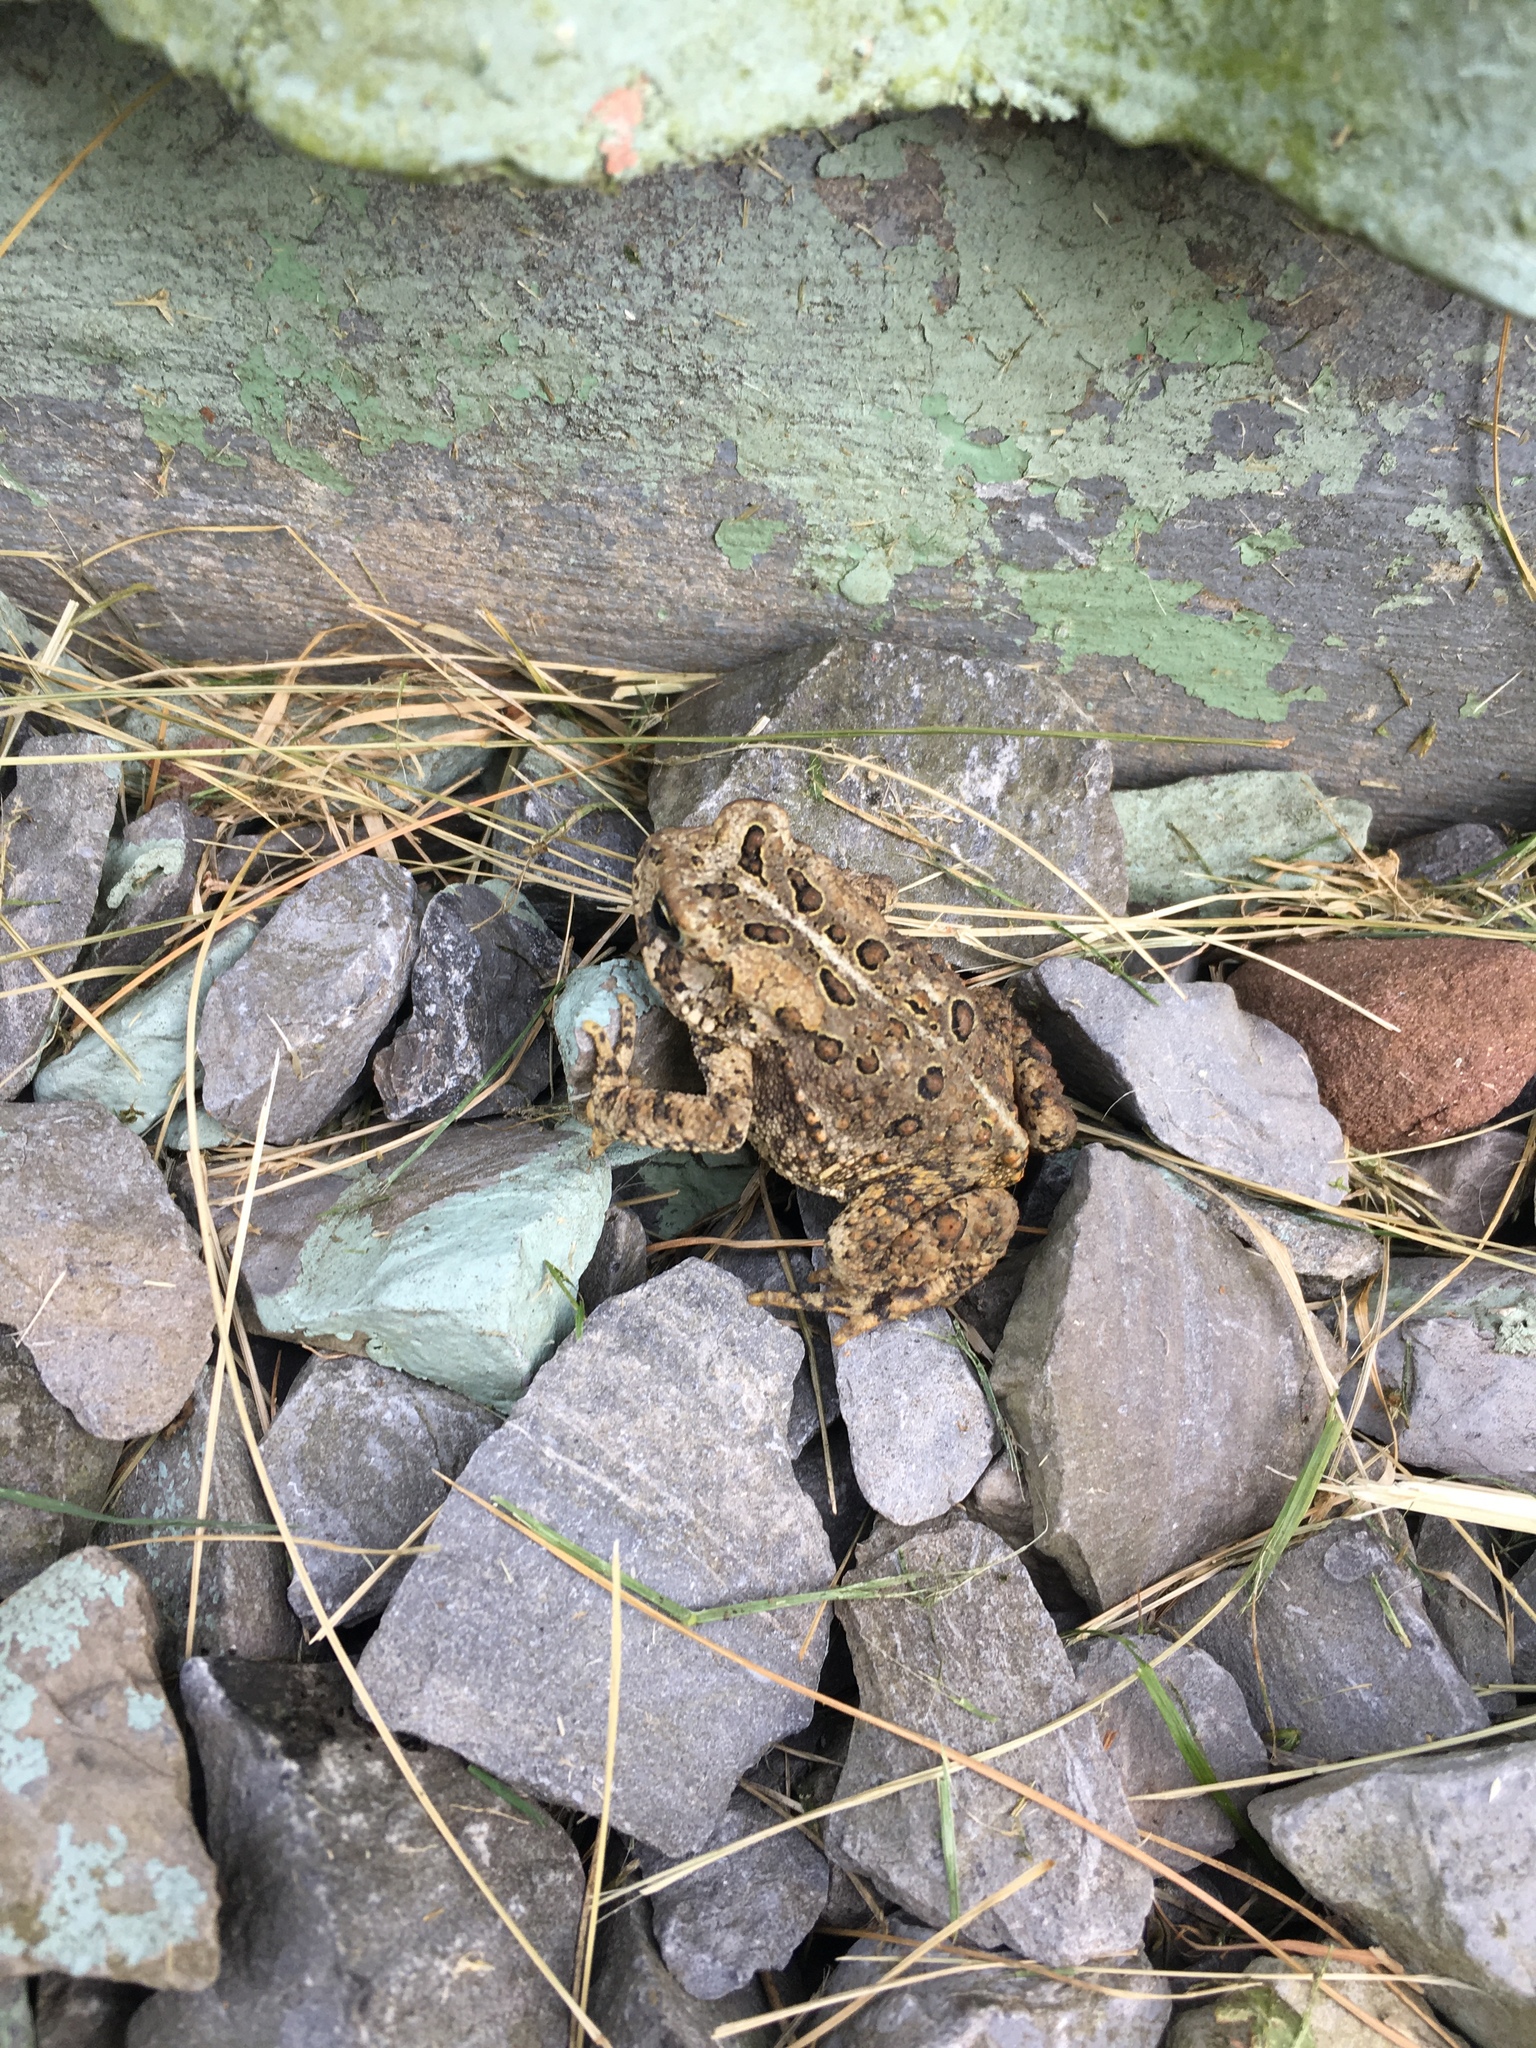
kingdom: Animalia
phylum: Chordata
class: Amphibia
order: Anura
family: Bufonidae
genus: Anaxyrus
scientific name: Anaxyrus americanus
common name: American toad
